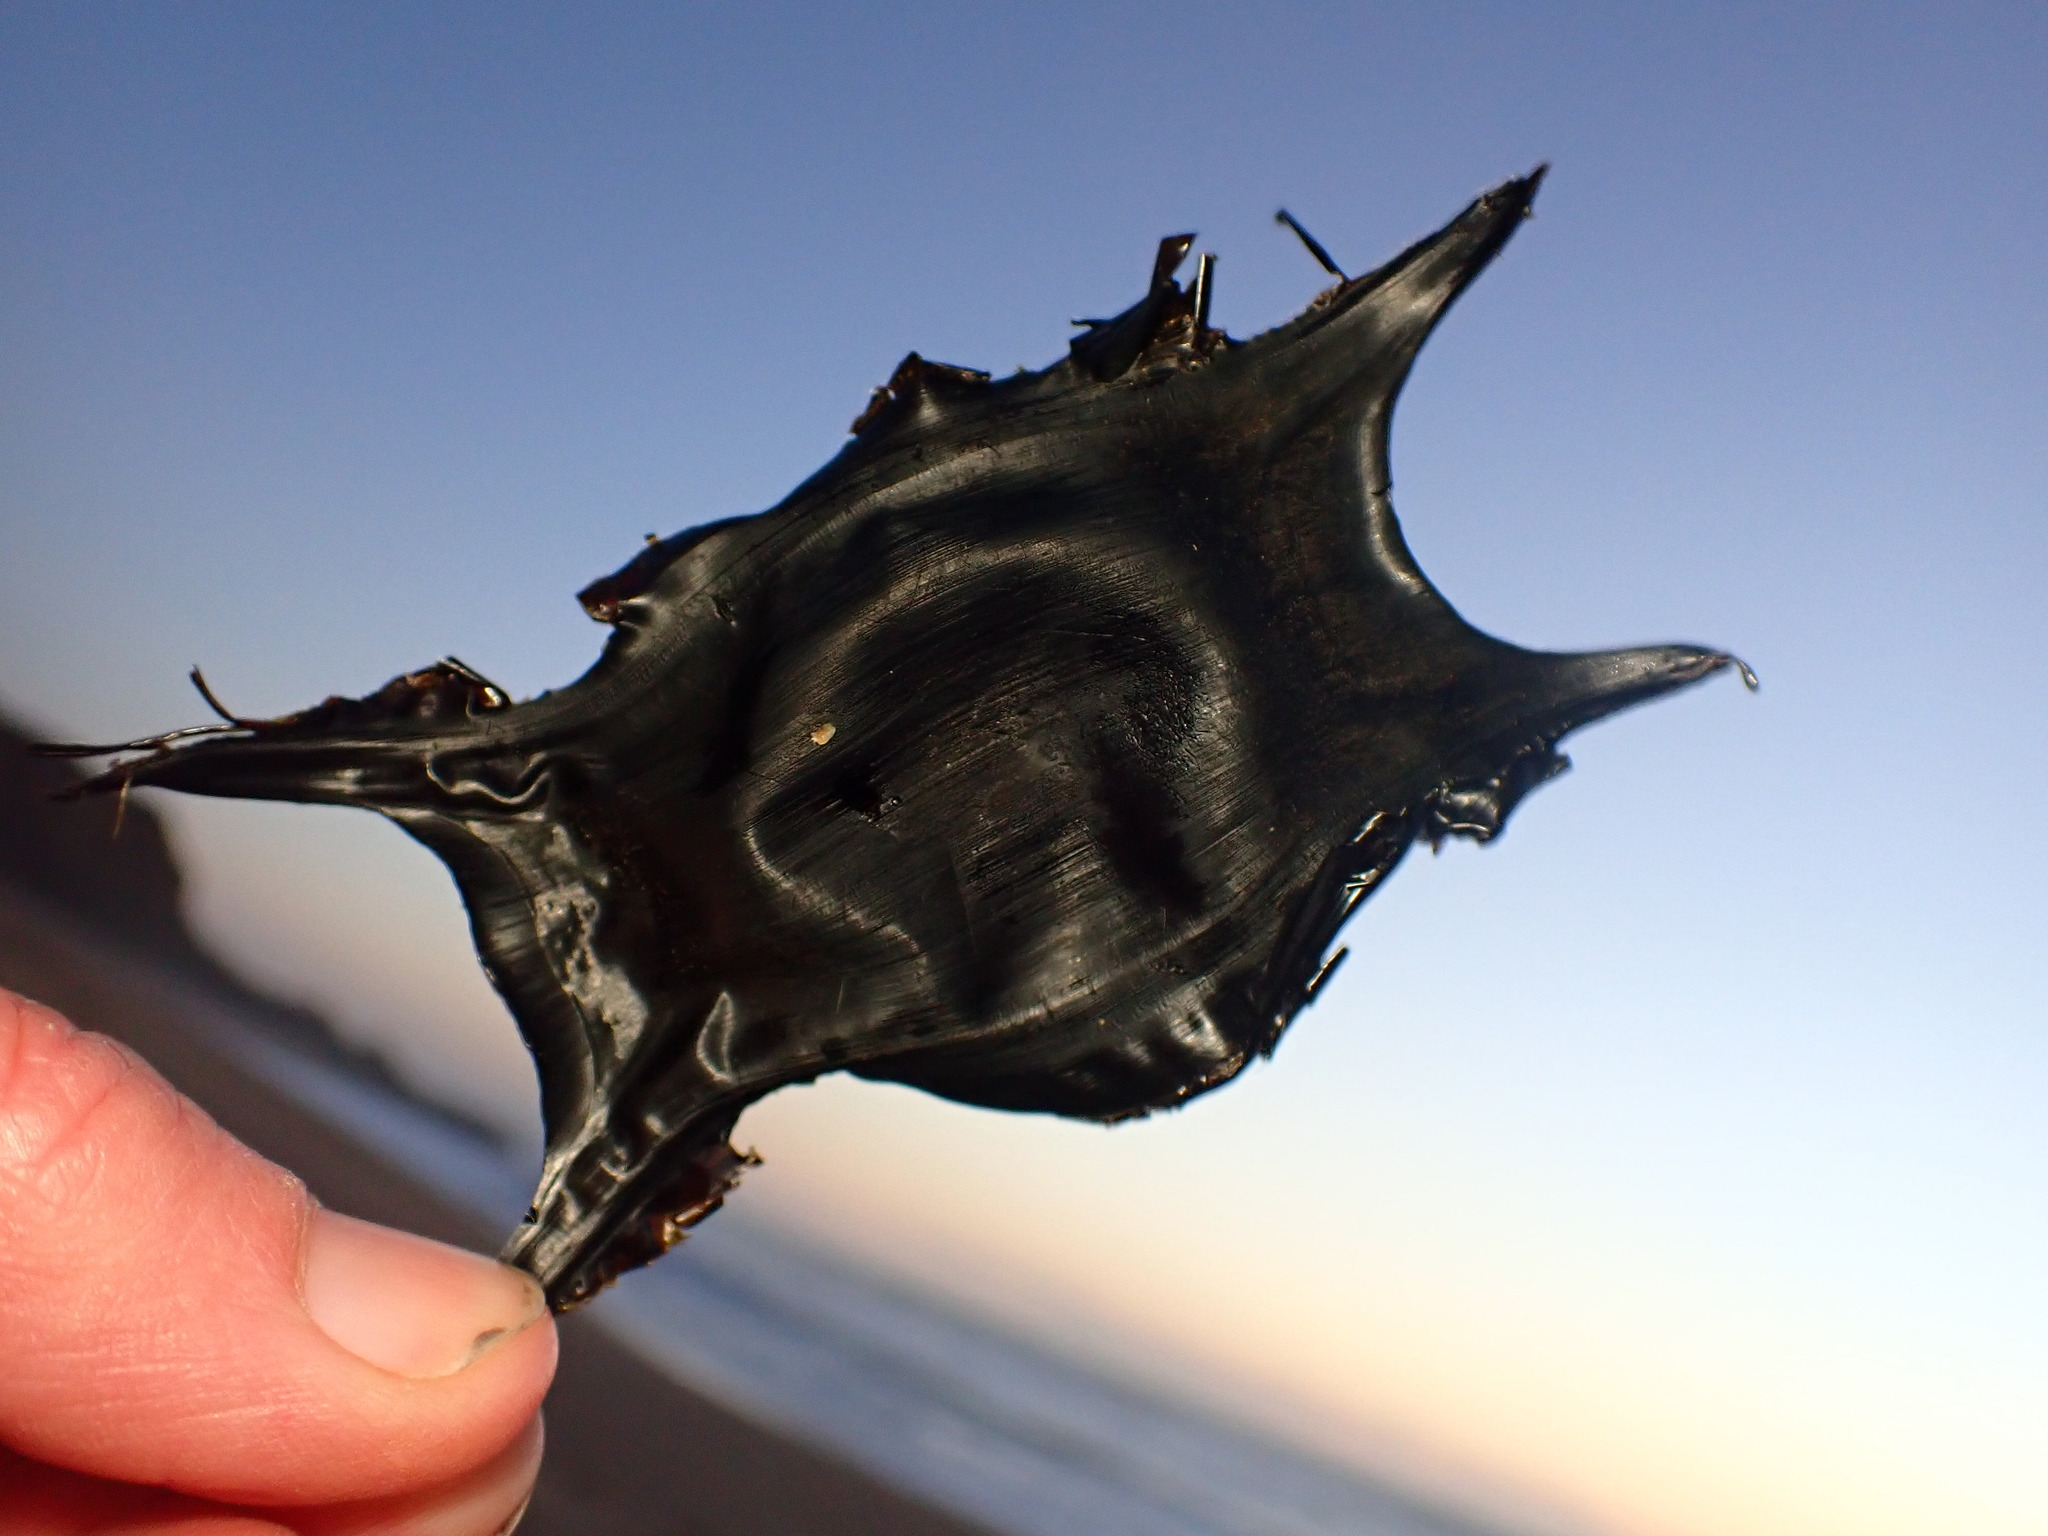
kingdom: Animalia
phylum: Chordata
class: Elasmobranchii
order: Rajiformes
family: Rajidae
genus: Caliraja
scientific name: Caliraja
